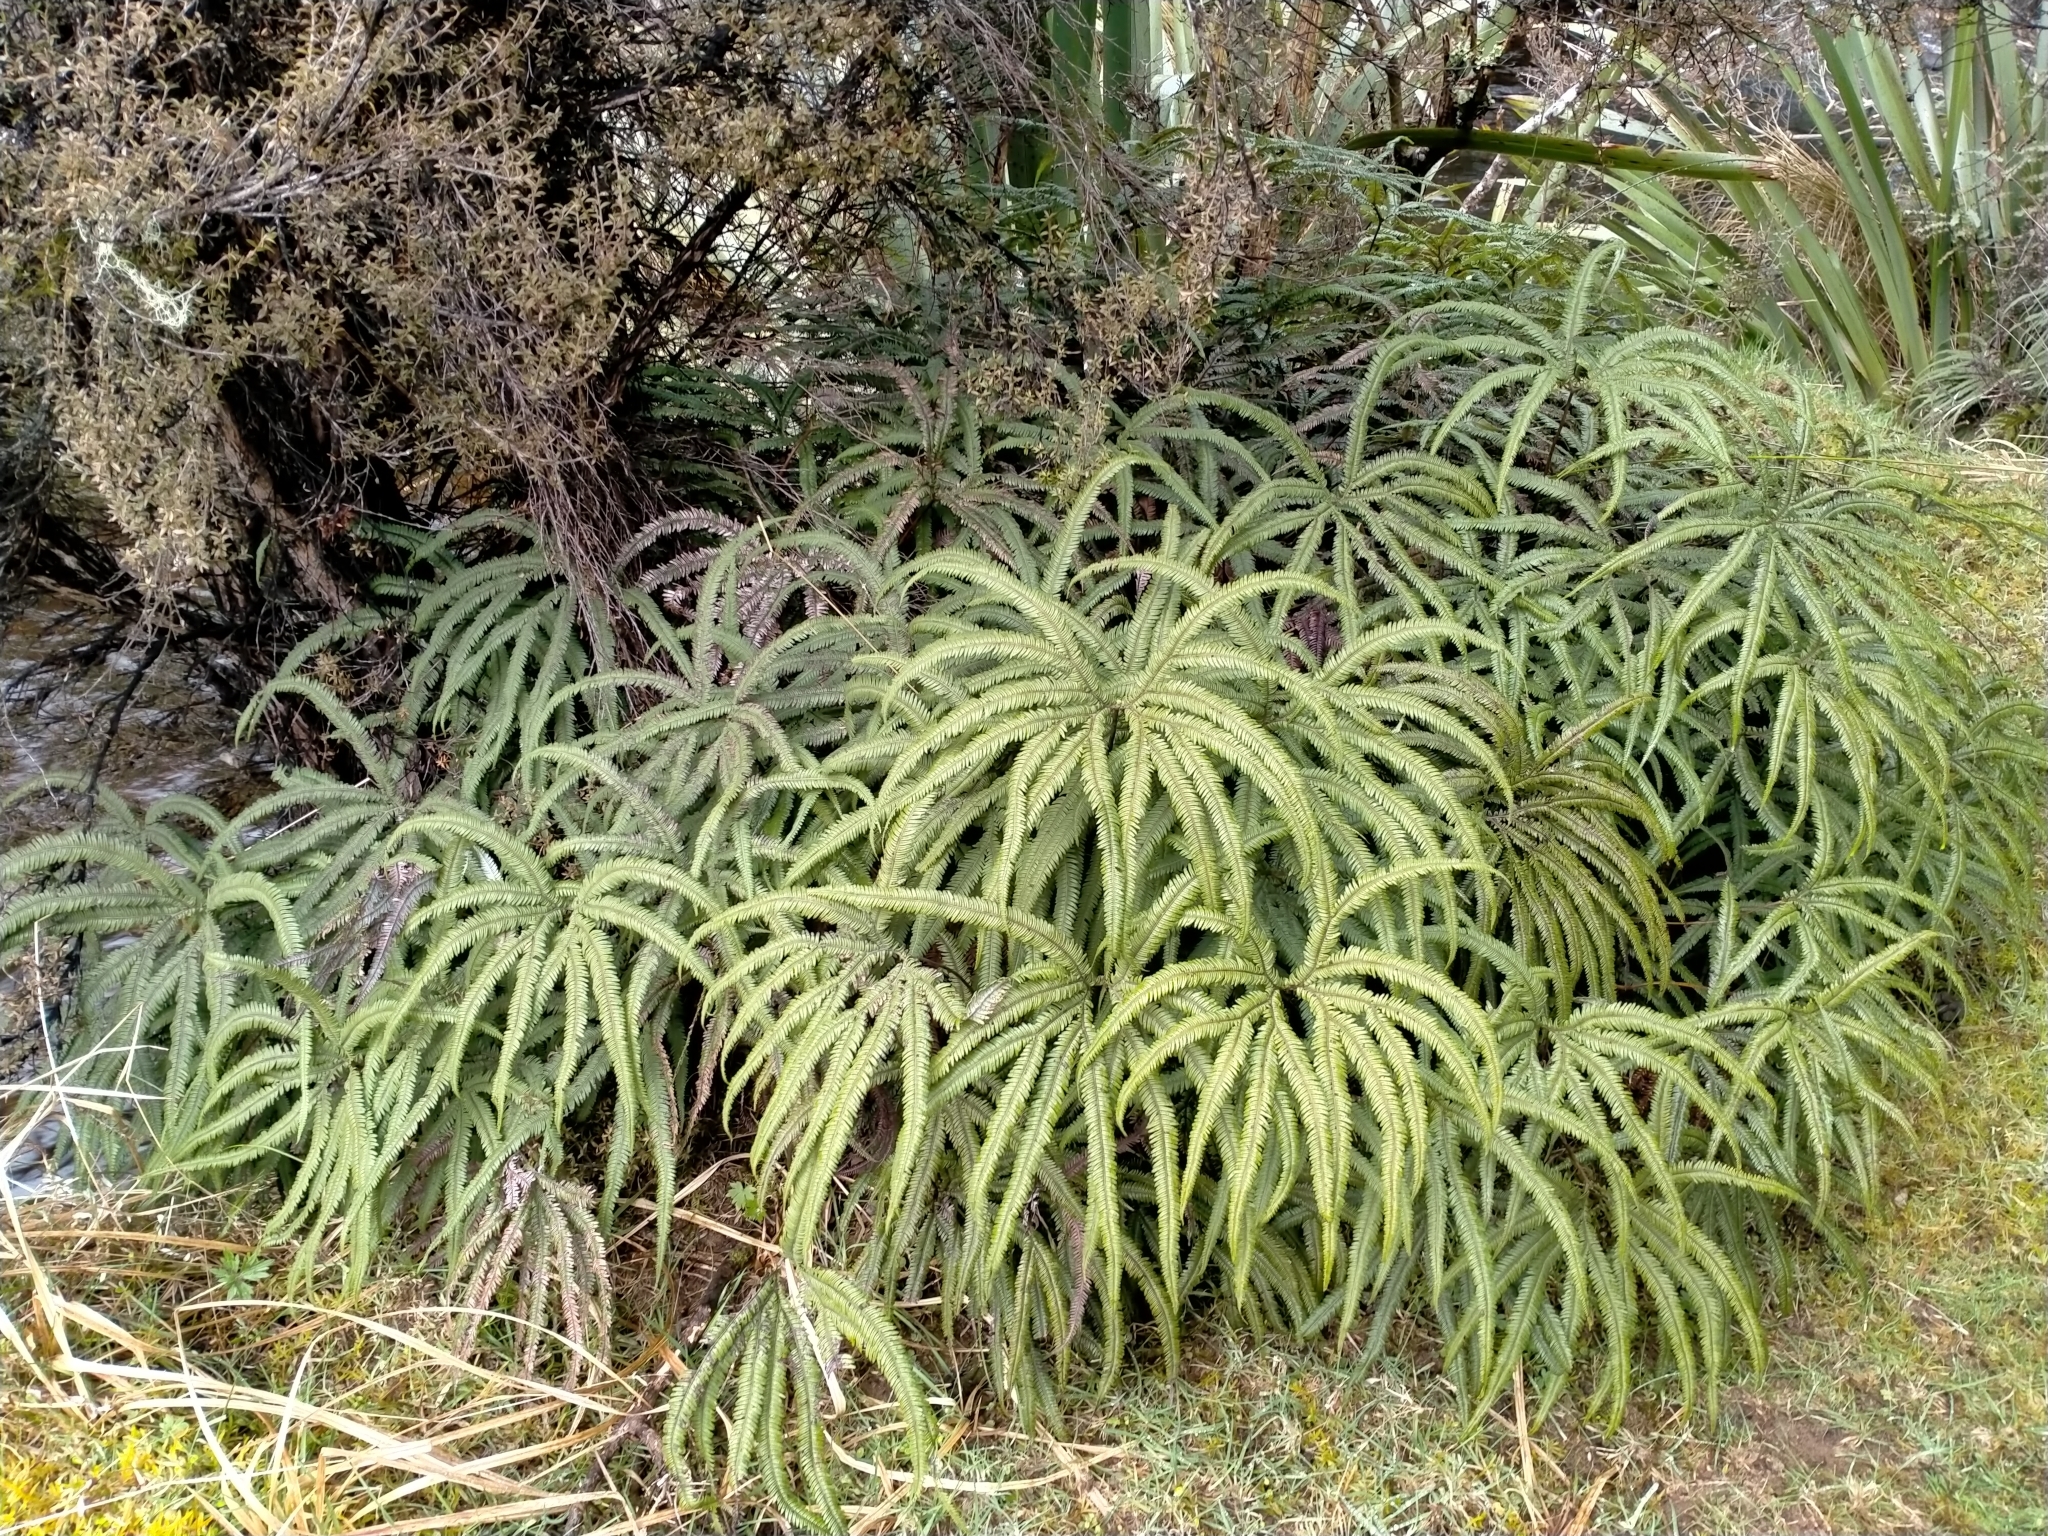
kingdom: Plantae
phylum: Tracheophyta
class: Polypodiopsida
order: Gleicheniales
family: Gleicheniaceae
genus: Sticherus
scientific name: Sticherus cunninghamii
